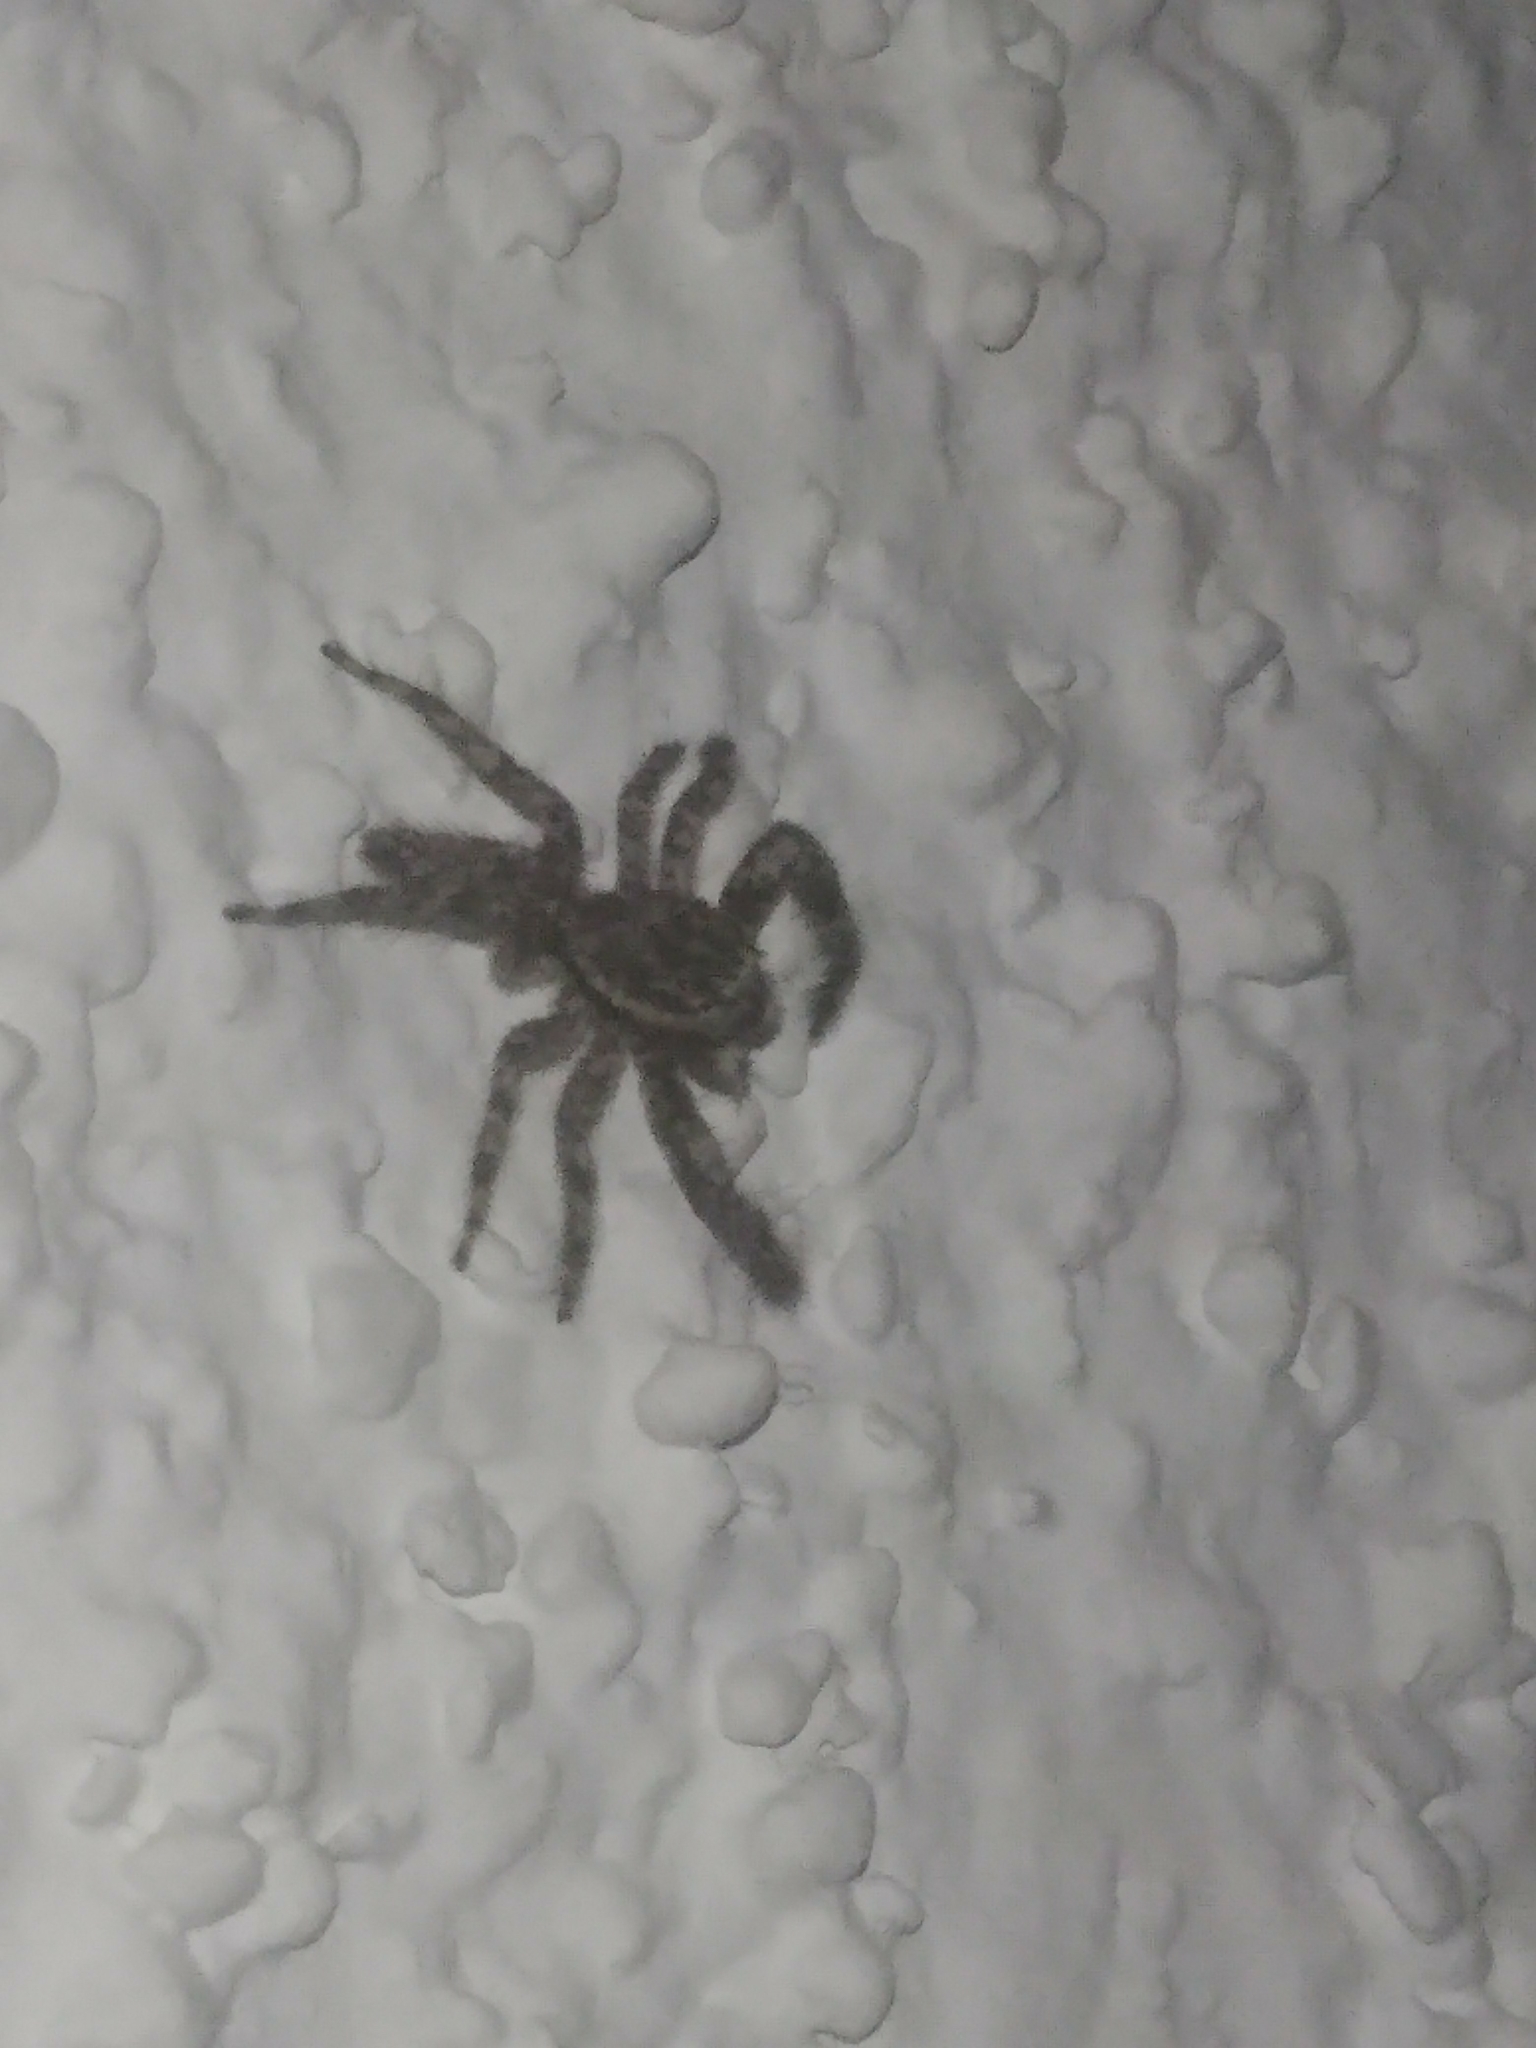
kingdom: Animalia
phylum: Arthropoda
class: Arachnida
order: Araneae
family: Salticidae
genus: Platycryptus
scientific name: Platycryptus undatus
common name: Tan jumping spider
